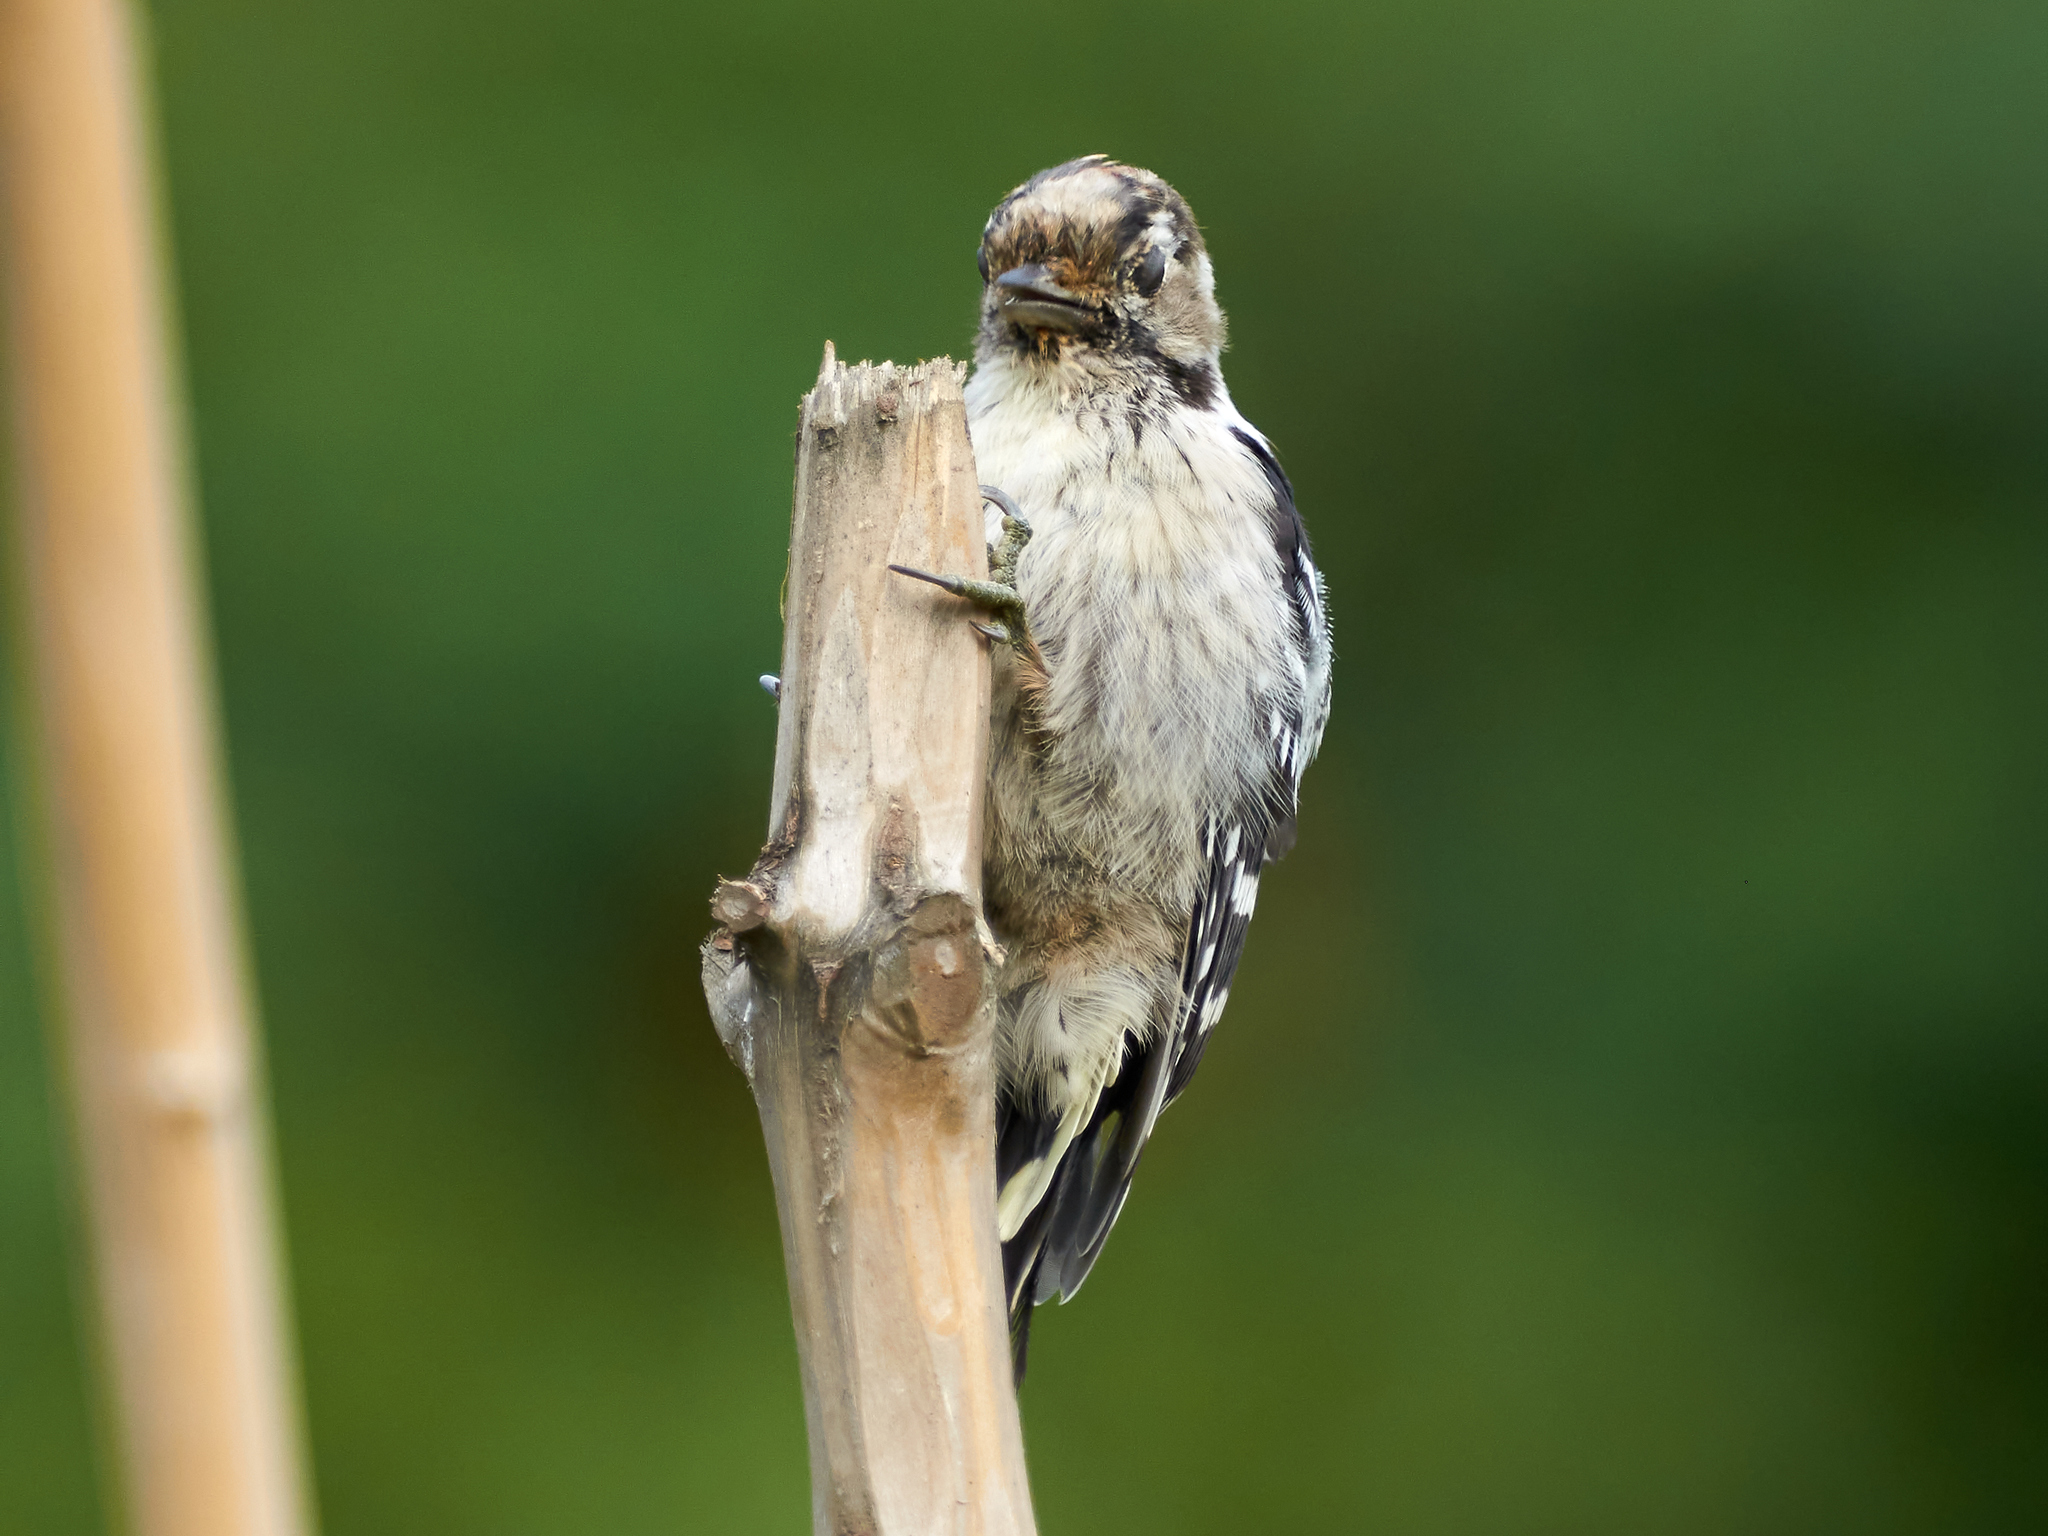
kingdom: Animalia
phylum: Chordata
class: Aves
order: Piciformes
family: Picidae
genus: Dryobates
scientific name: Dryobates minor
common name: Lesser spotted woodpecker
